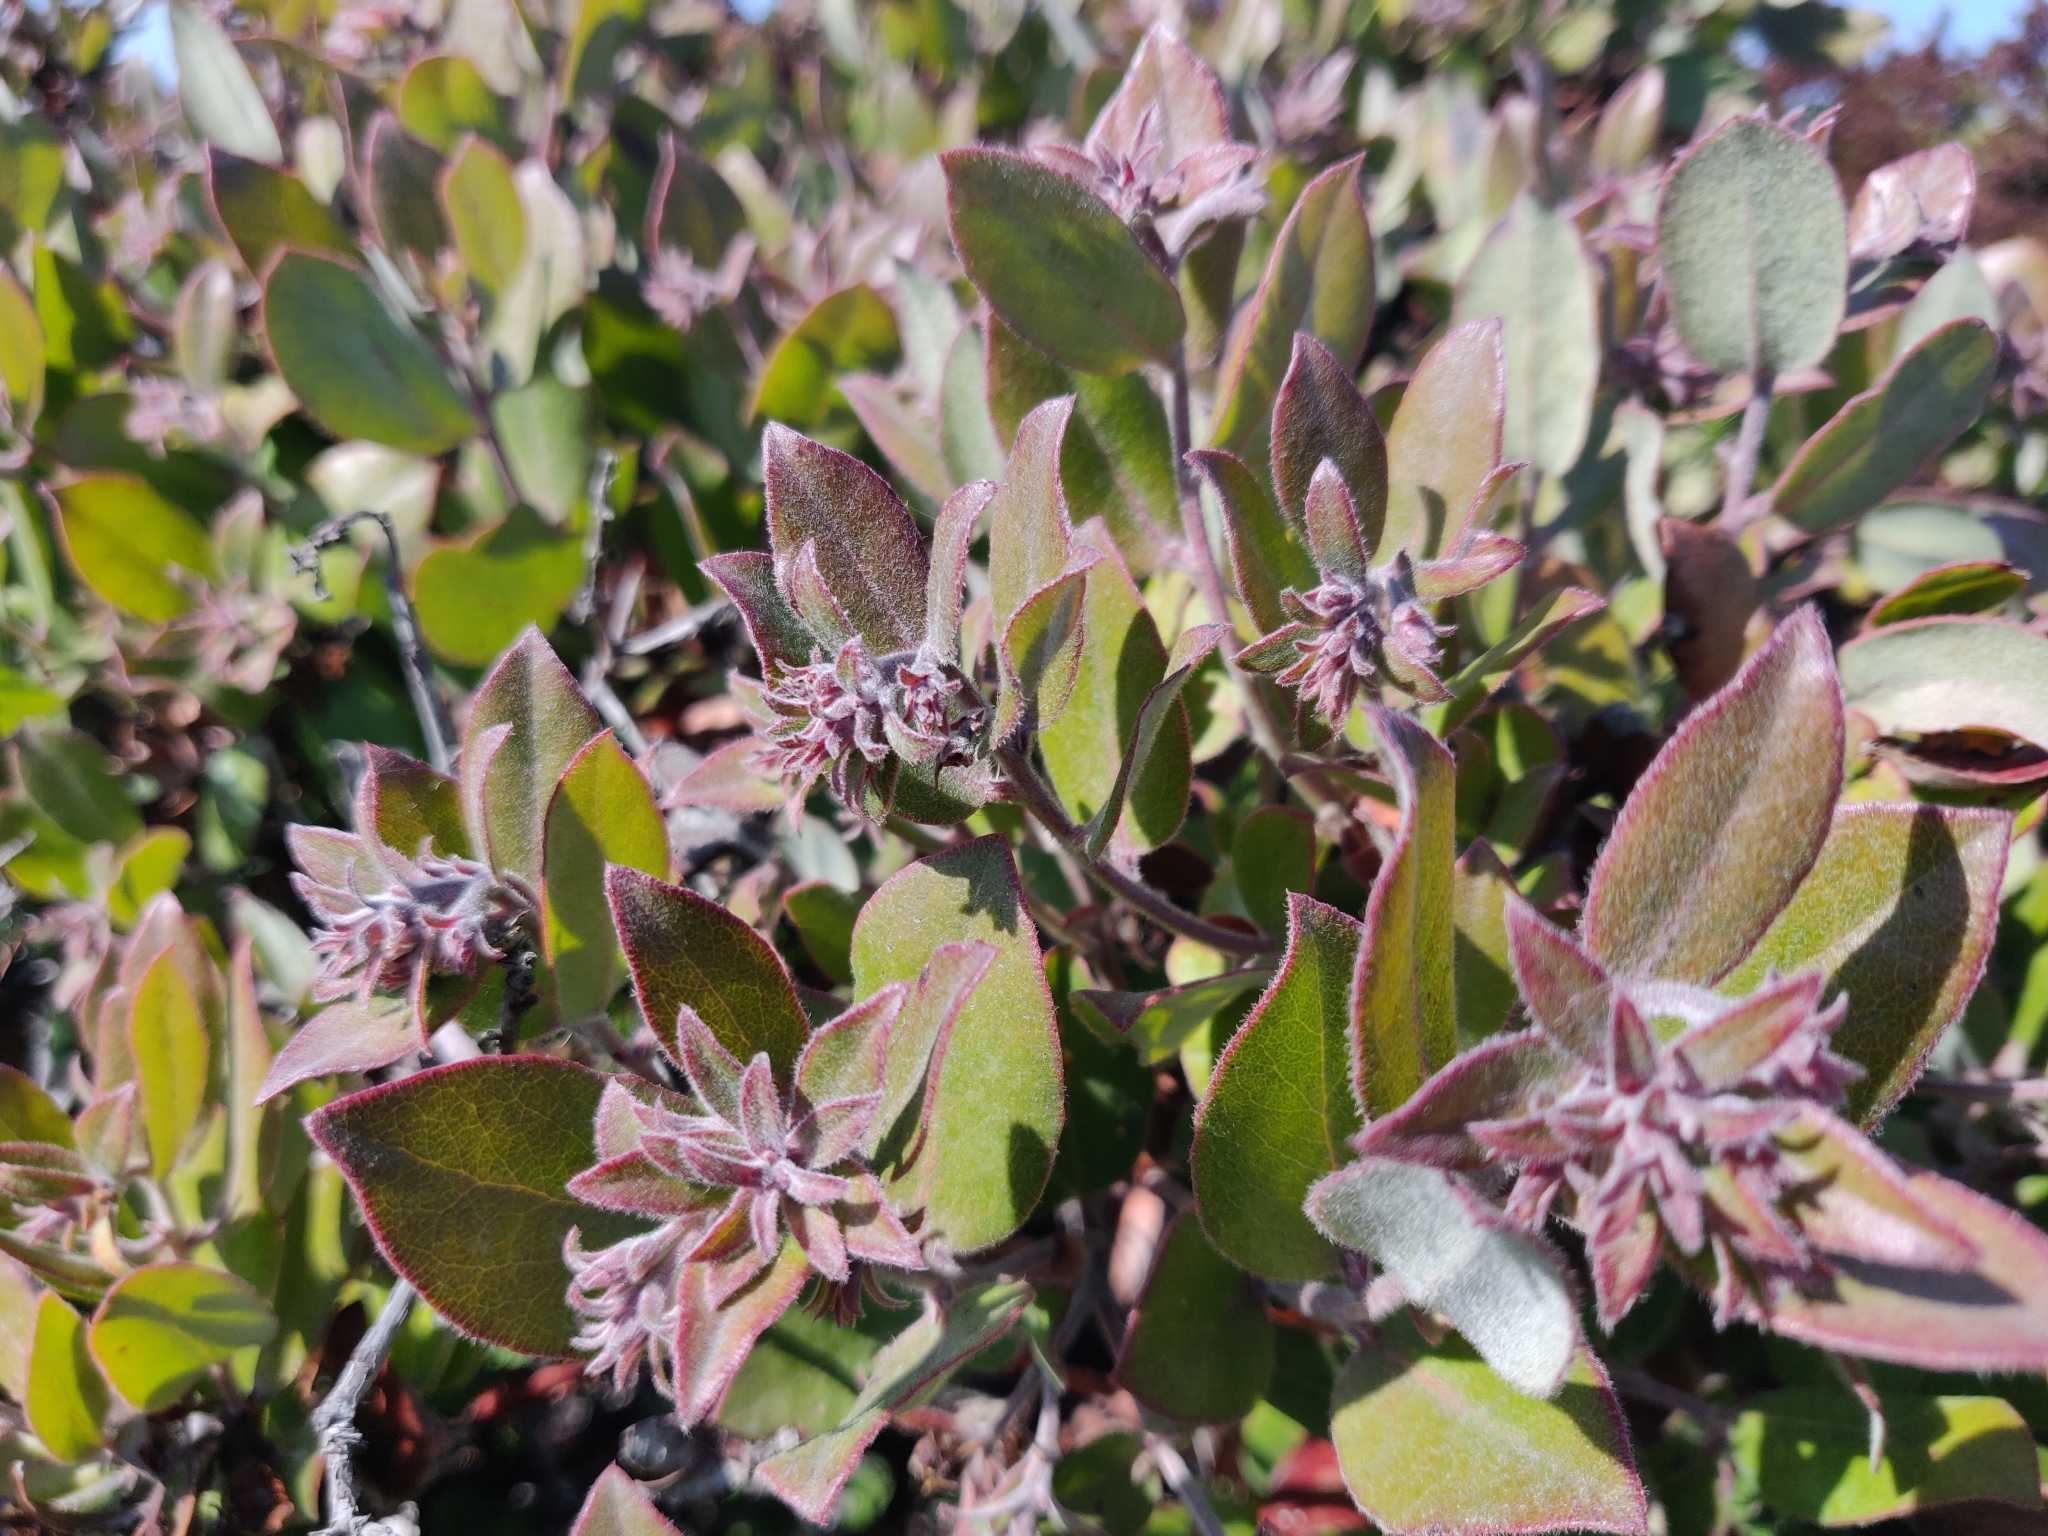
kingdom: Plantae
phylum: Tracheophyta
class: Magnoliopsida
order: Ericales
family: Ericaceae
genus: Arctostaphylos
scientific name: Arctostaphylos tomentosa
